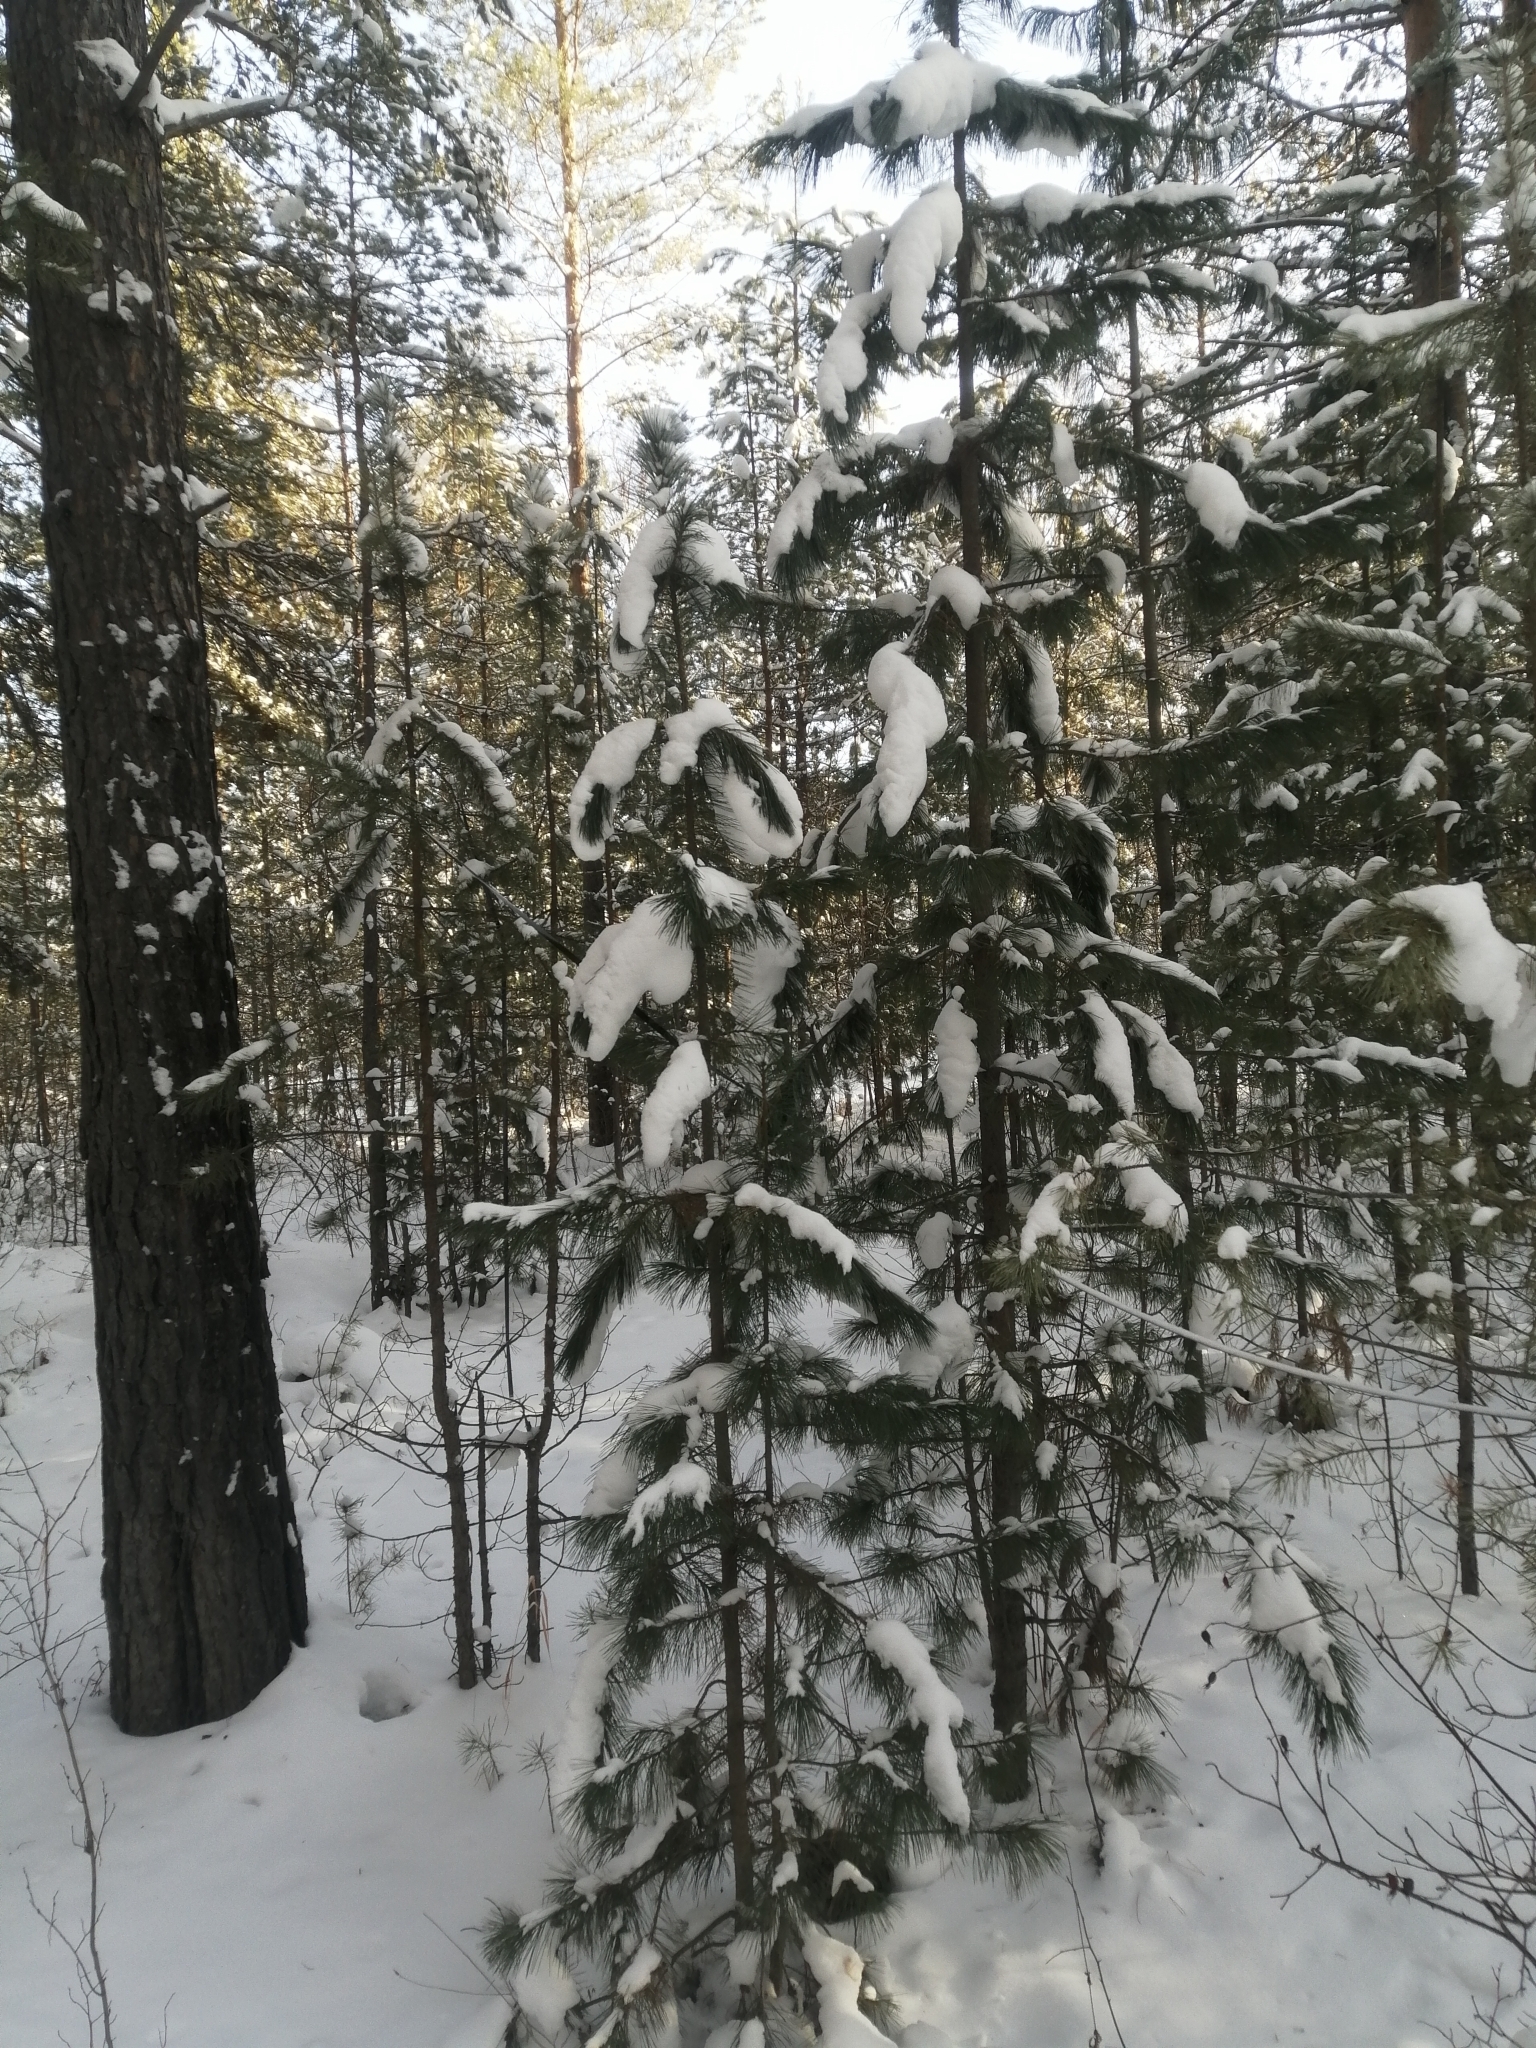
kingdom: Plantae
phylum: Tracheophyta
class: Pinopsida
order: Pinales
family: Pinaceae
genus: Pinus
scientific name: Pinus sibirica
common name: Siberian pine
